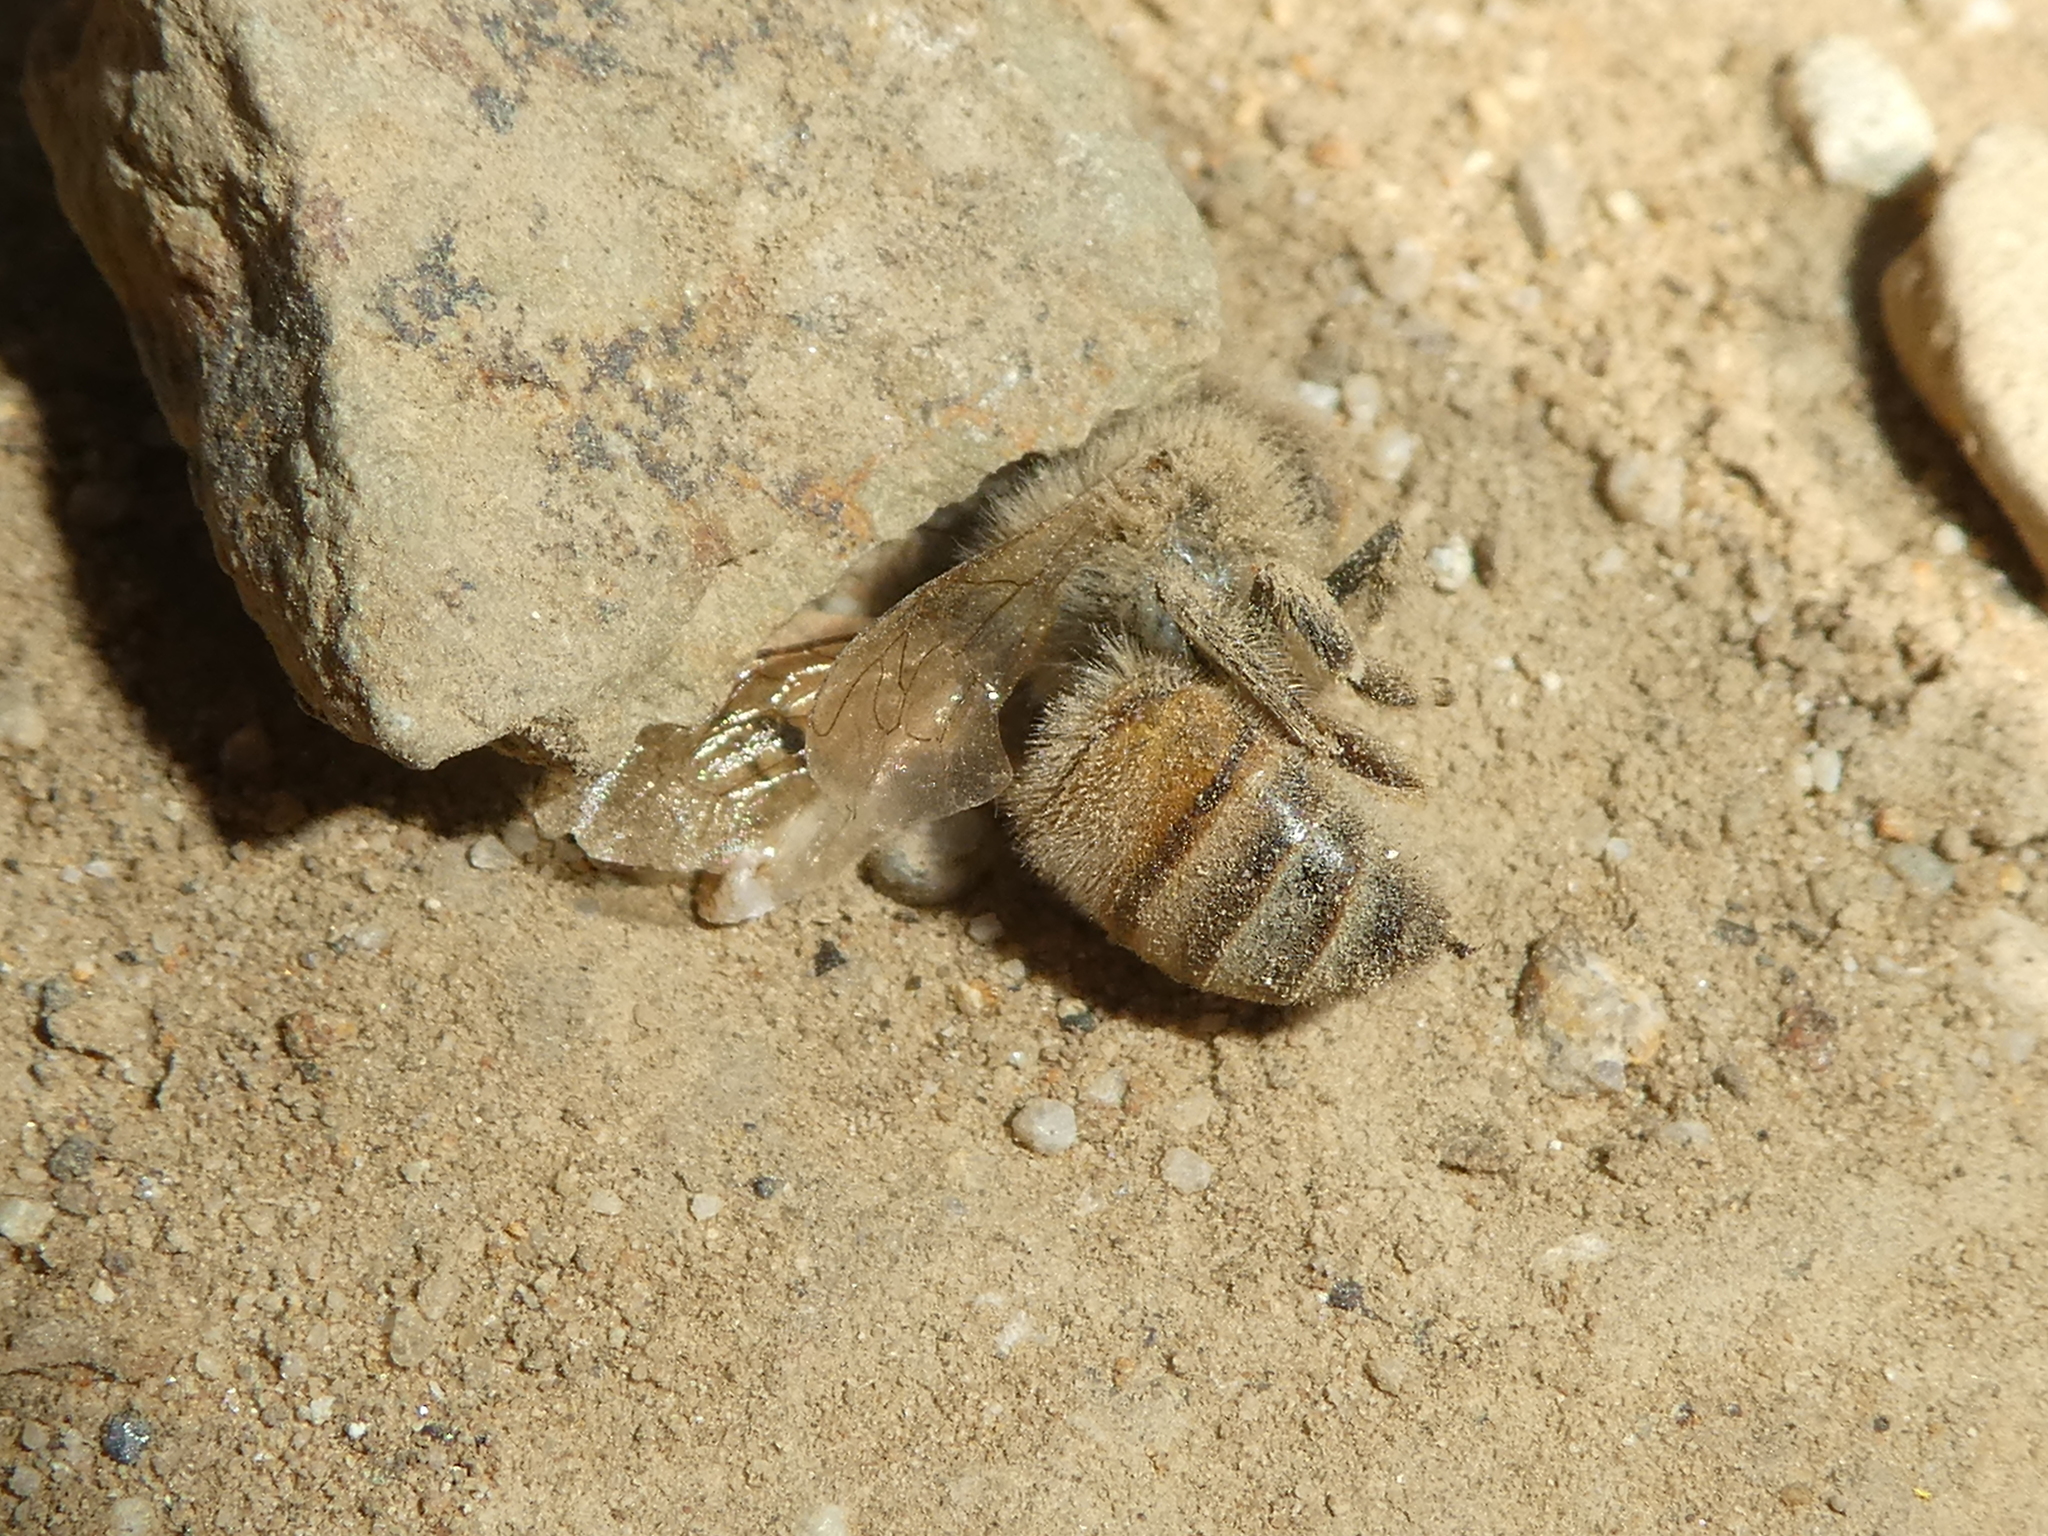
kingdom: Animalia
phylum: Arthropoda
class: Insecta
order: Hymenoptera
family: Apidae
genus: Apis
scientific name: Apis mellifera
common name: Honey bee
